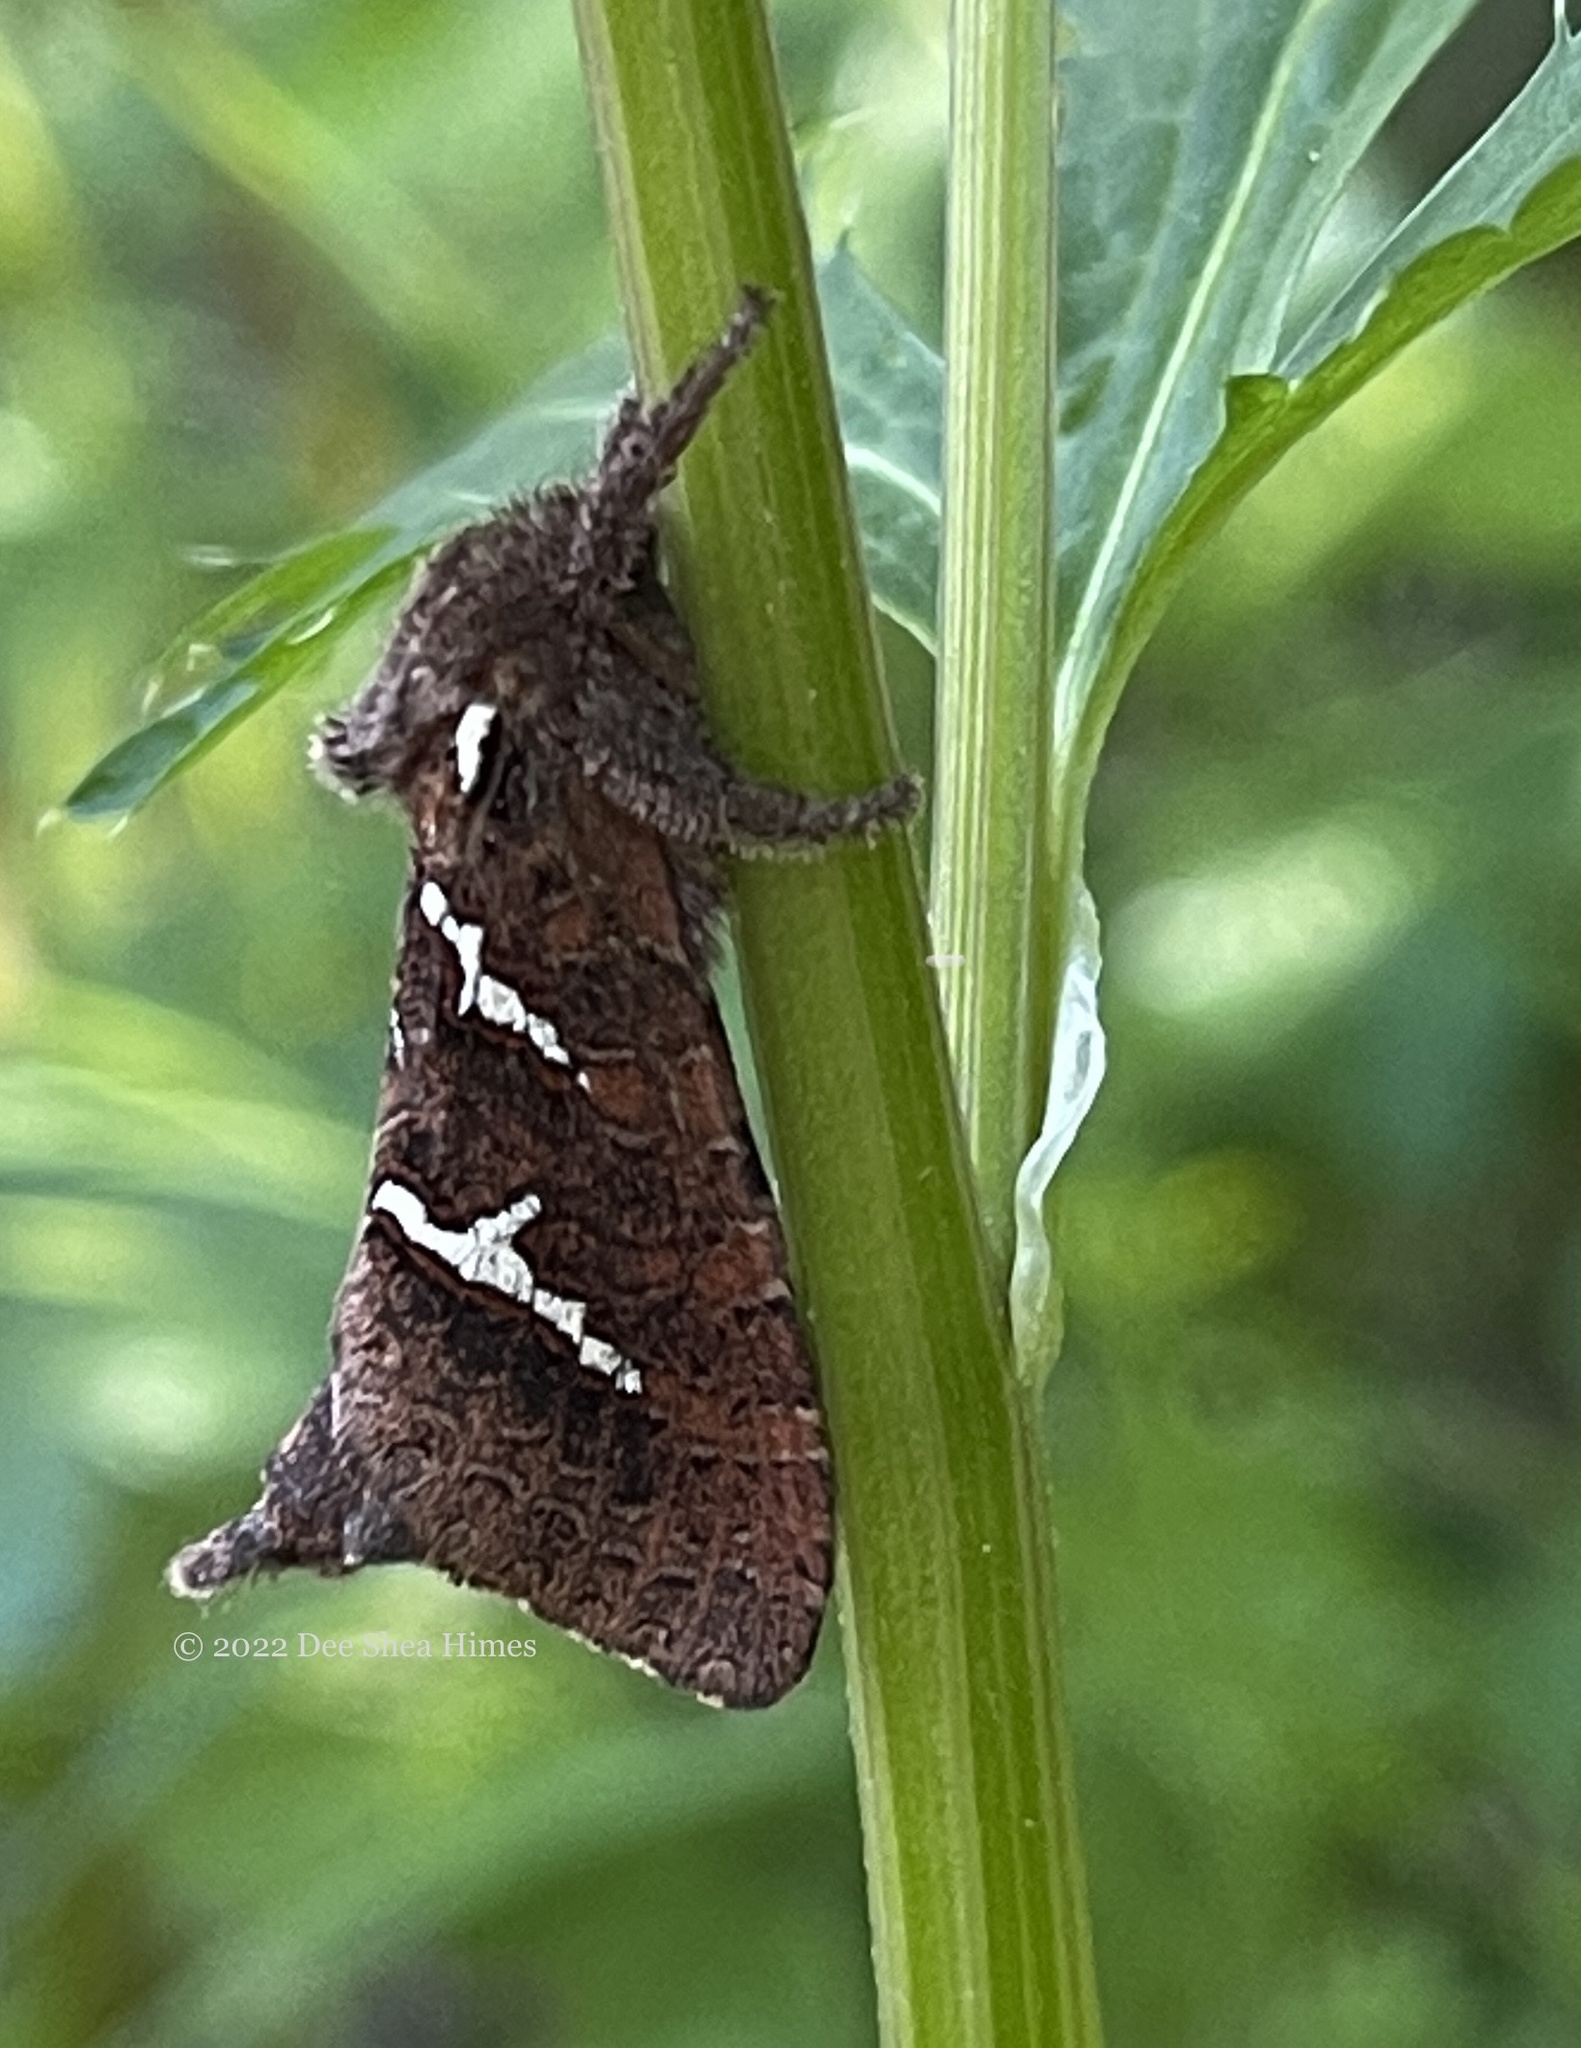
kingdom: Animalia
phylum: Arthropoda
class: Insecta
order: Lepidoptera
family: Hepialidae
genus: Phymatopus
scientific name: Phymatopus californicus
